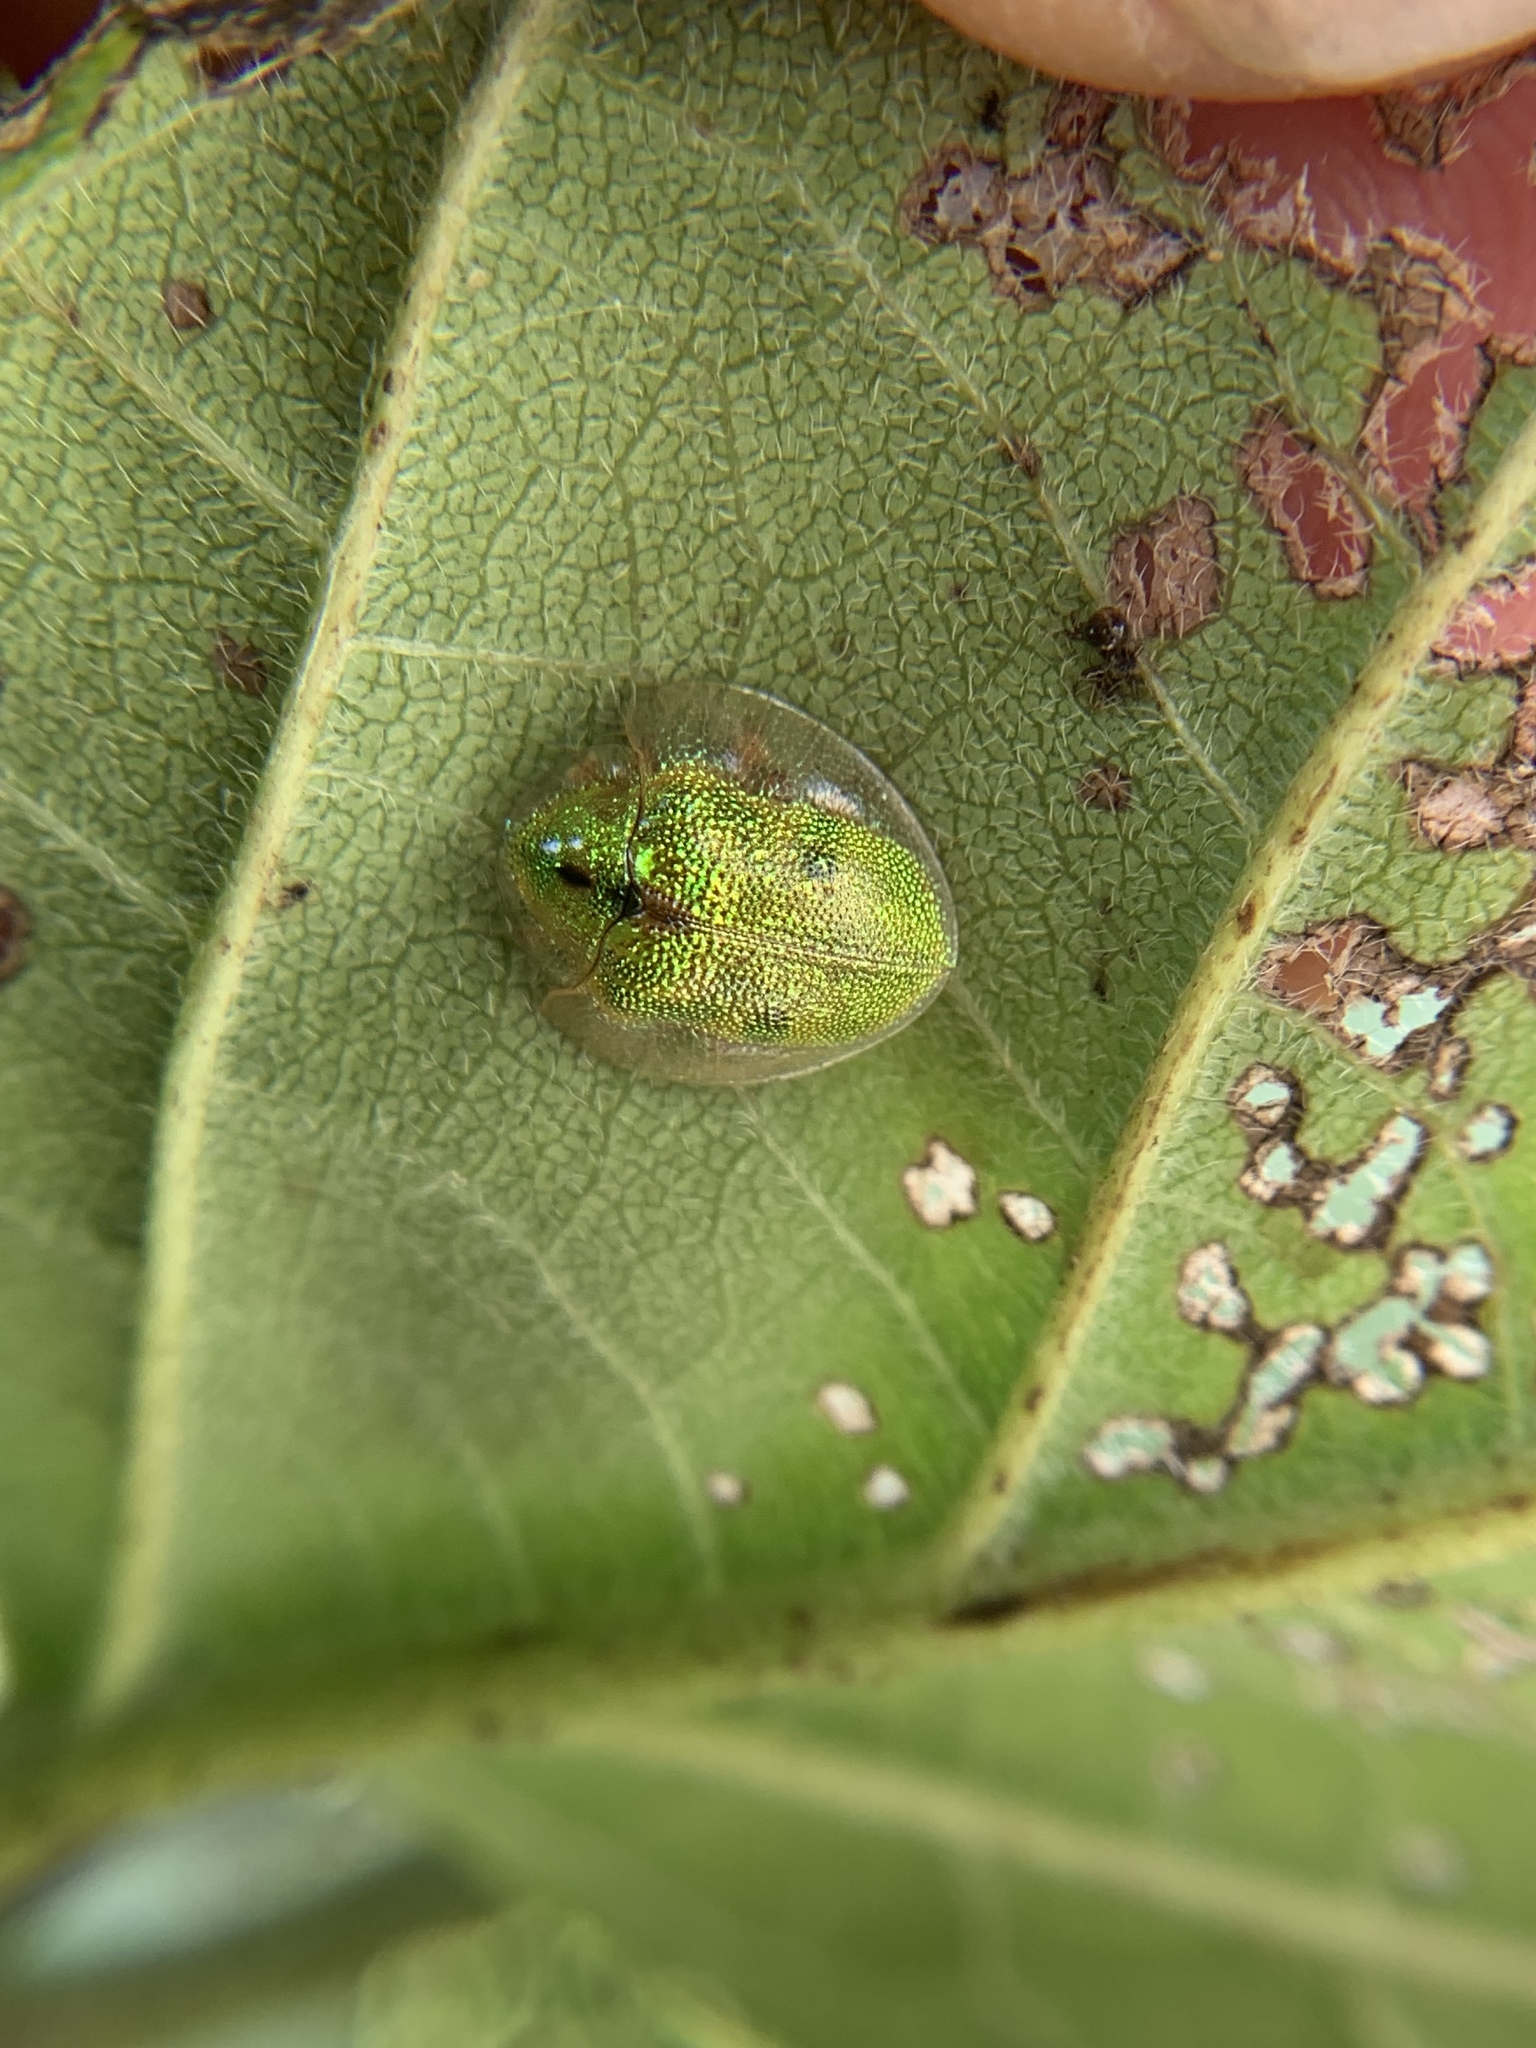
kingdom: Animalia
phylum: Arthropoda
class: Insecta
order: Coleoptera
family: Chrysomelidae
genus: Eurypepla
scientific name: Eurypepla calochroma
